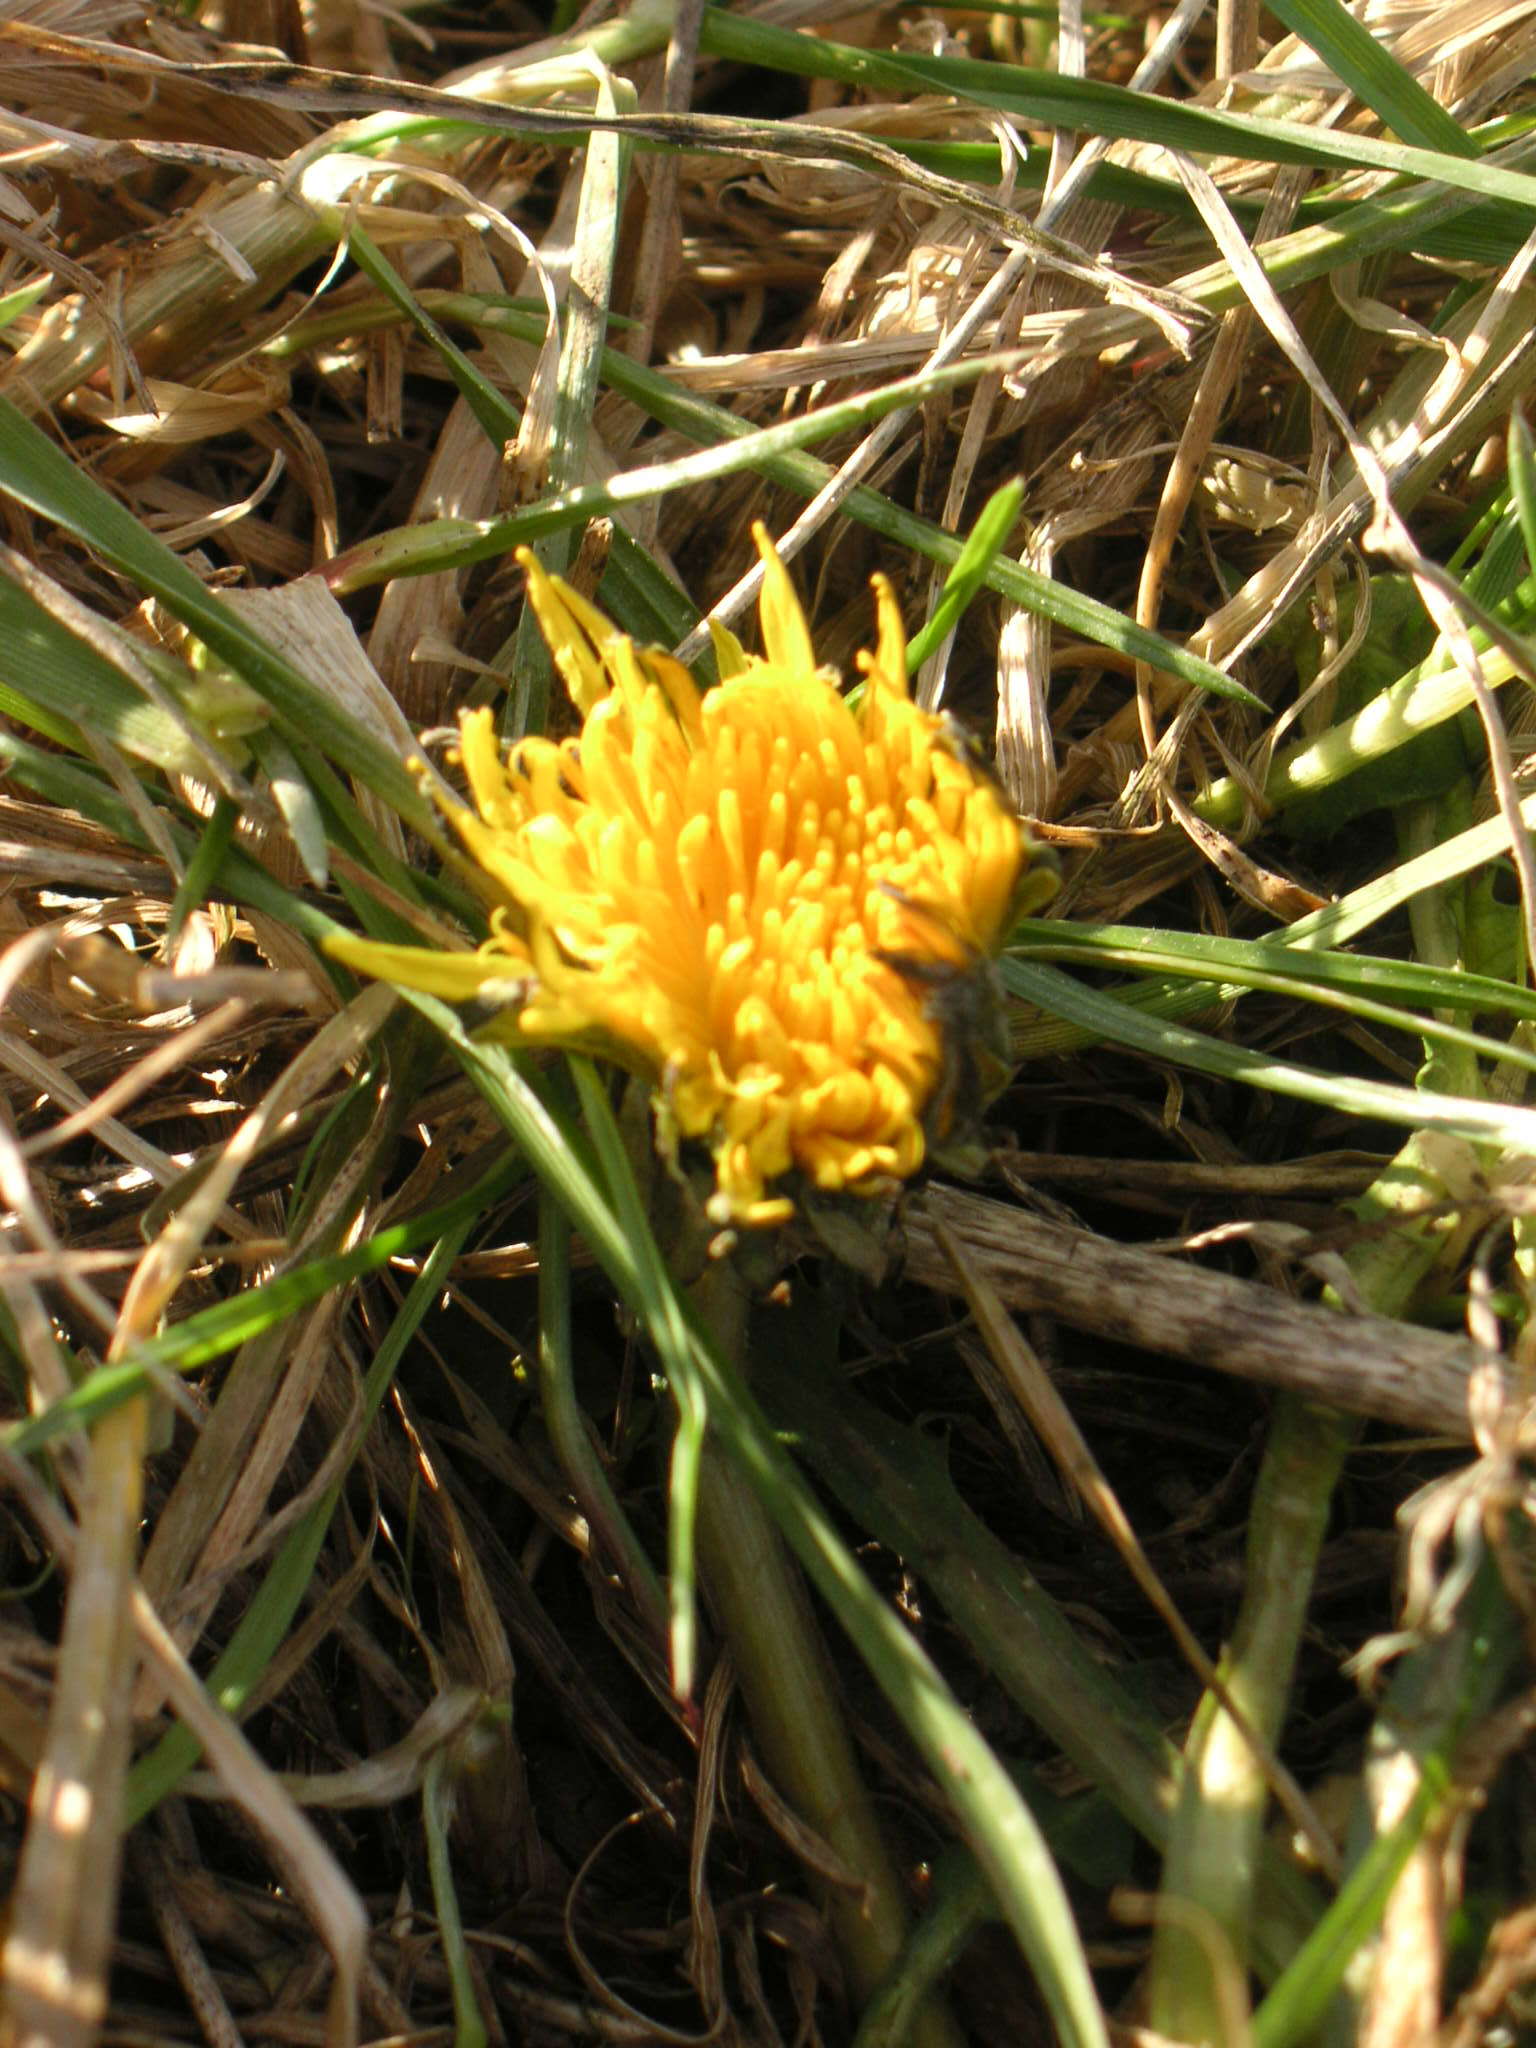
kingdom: Plantae
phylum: Tracheophyta
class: Magnoliopsida
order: Asterales
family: Asteraceae
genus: Taraxacum
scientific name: Taraxacum
